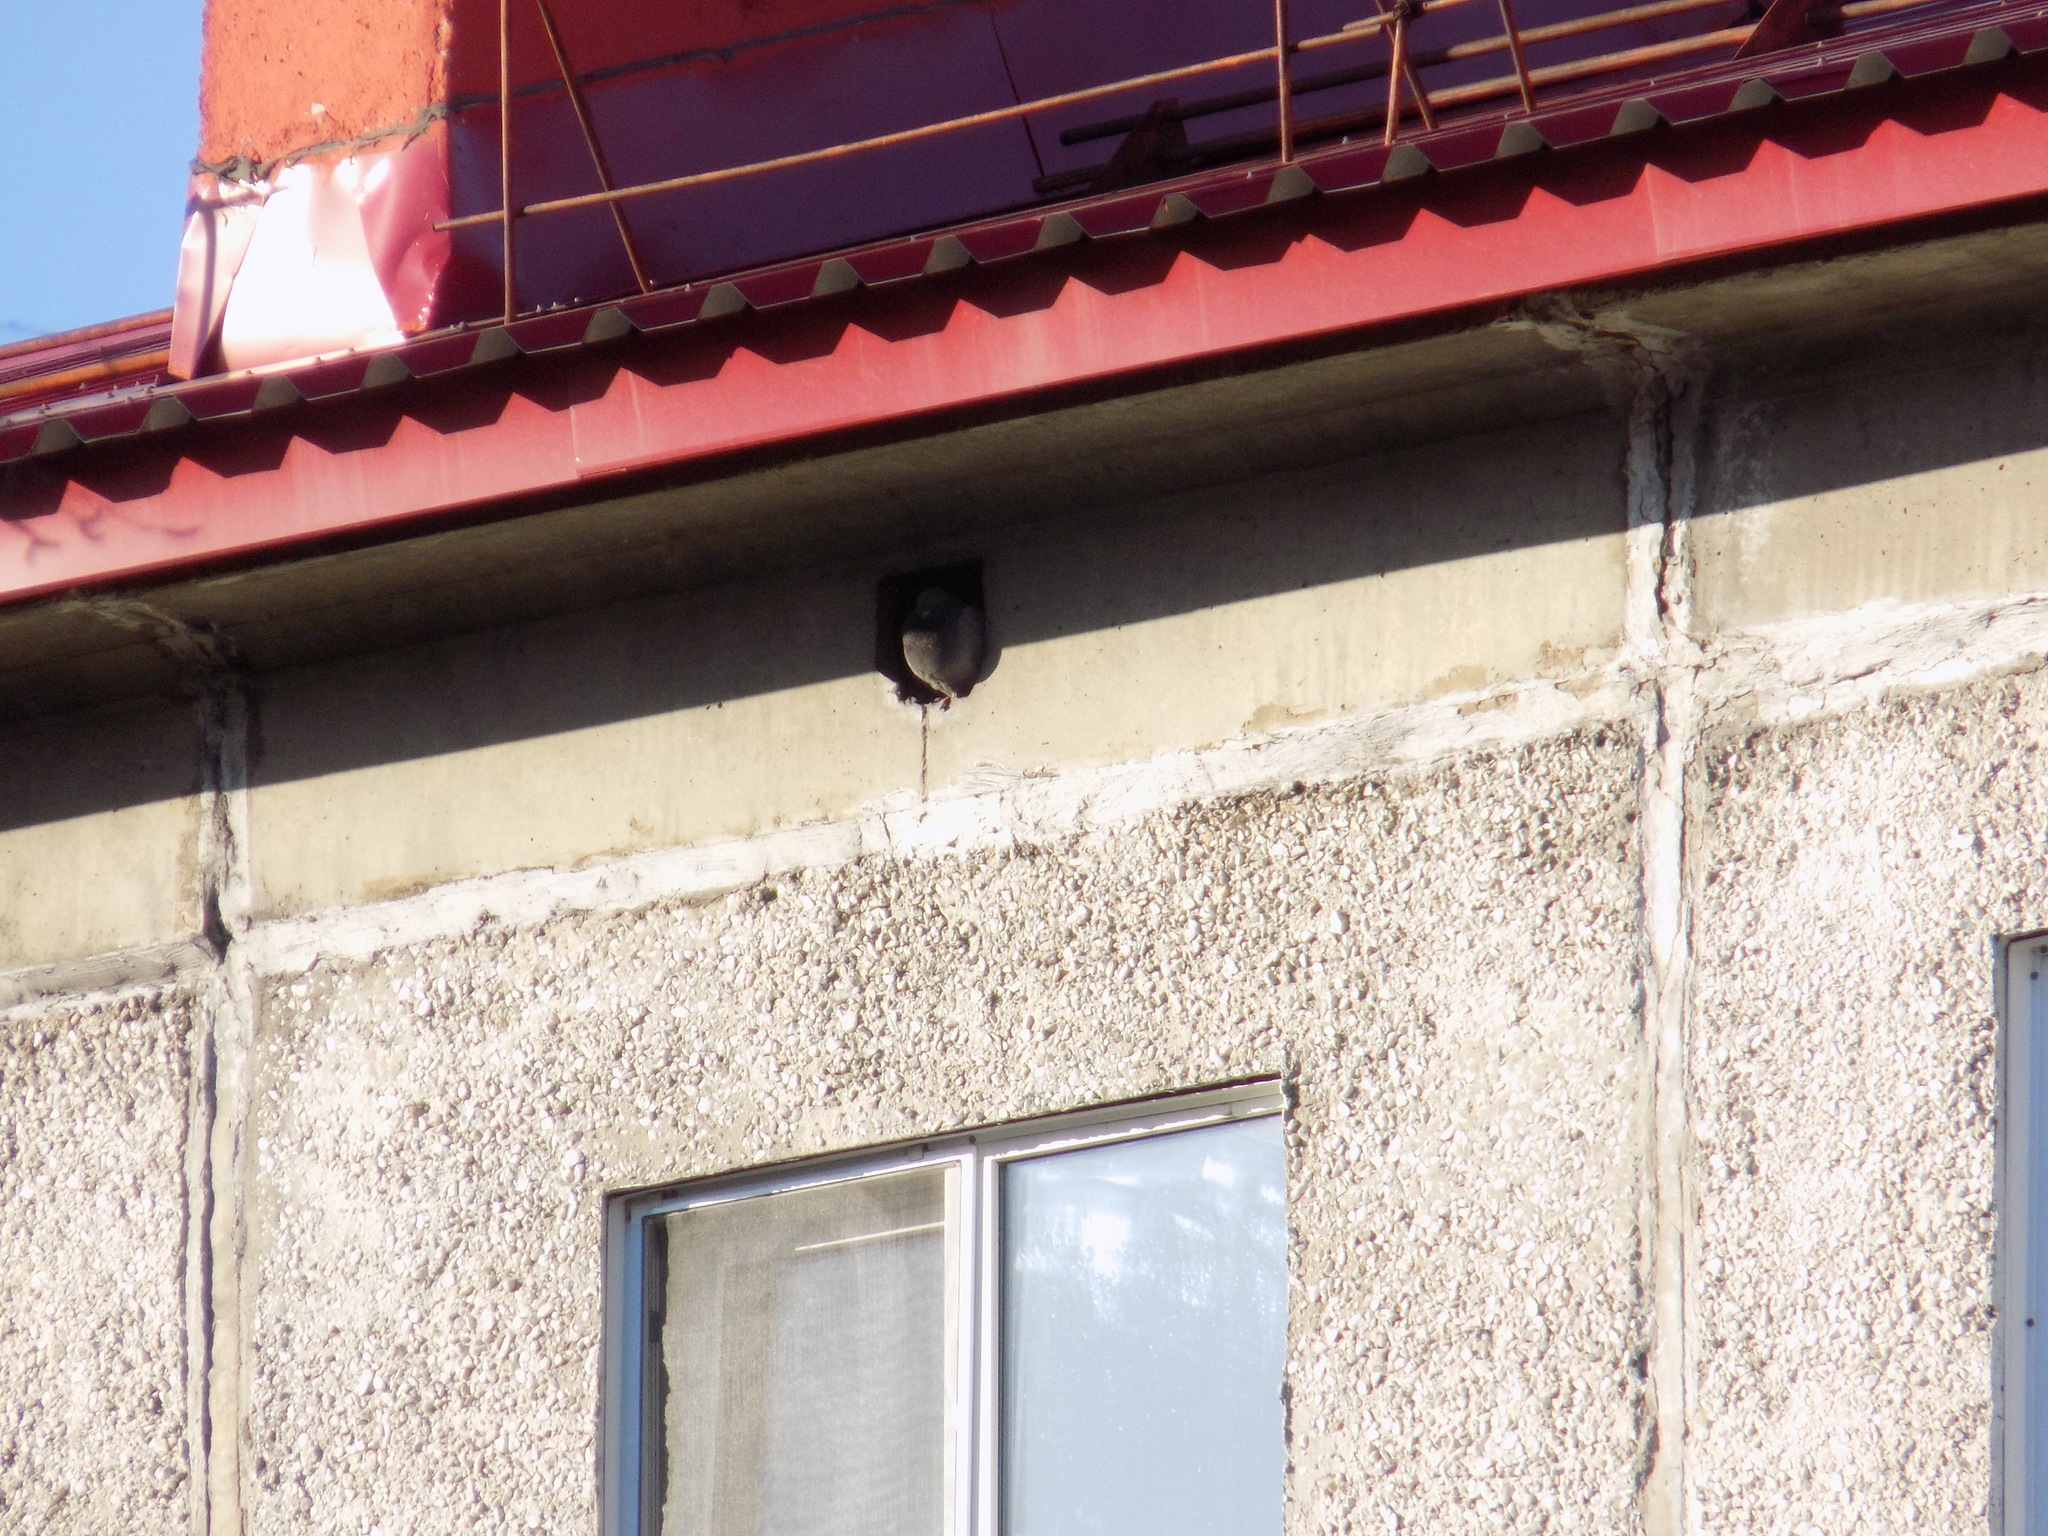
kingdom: Animalia
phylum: Chordata
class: Aves
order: Columbiformes
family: Columbidae
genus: Columba
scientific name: Columba livia
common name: Rock pigeon
